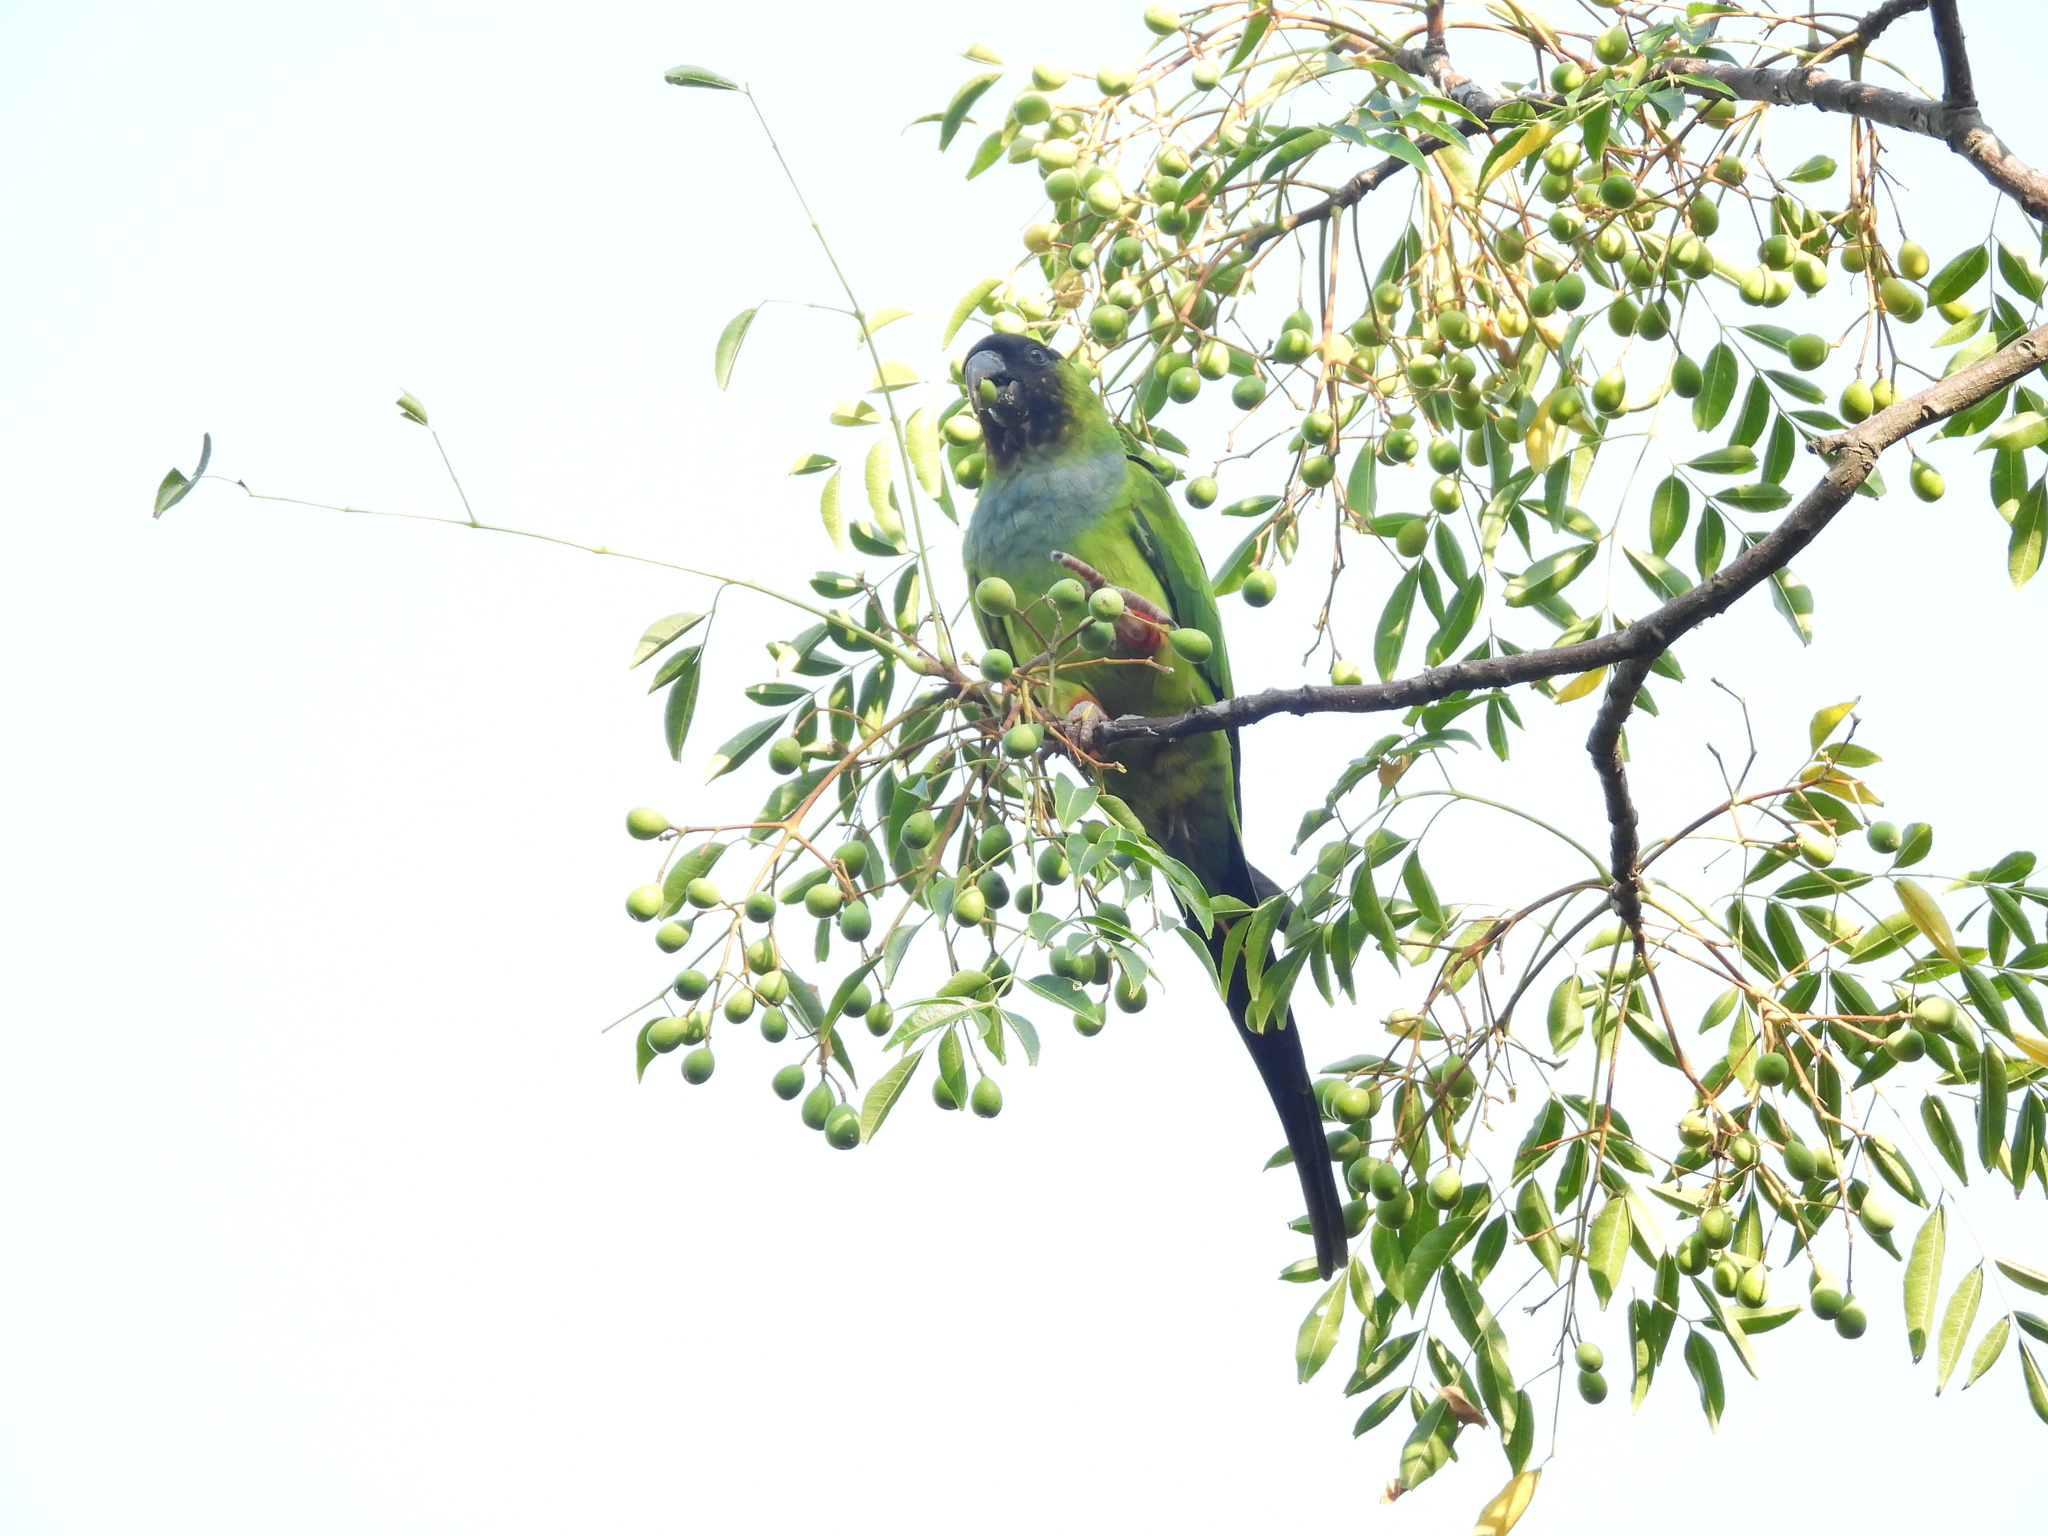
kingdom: Animalia
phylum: Chordata
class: Aves
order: Psittaciformes
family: Psittacidae
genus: Nandayus
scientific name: Nandayus nenday
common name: Nanday parakeet
